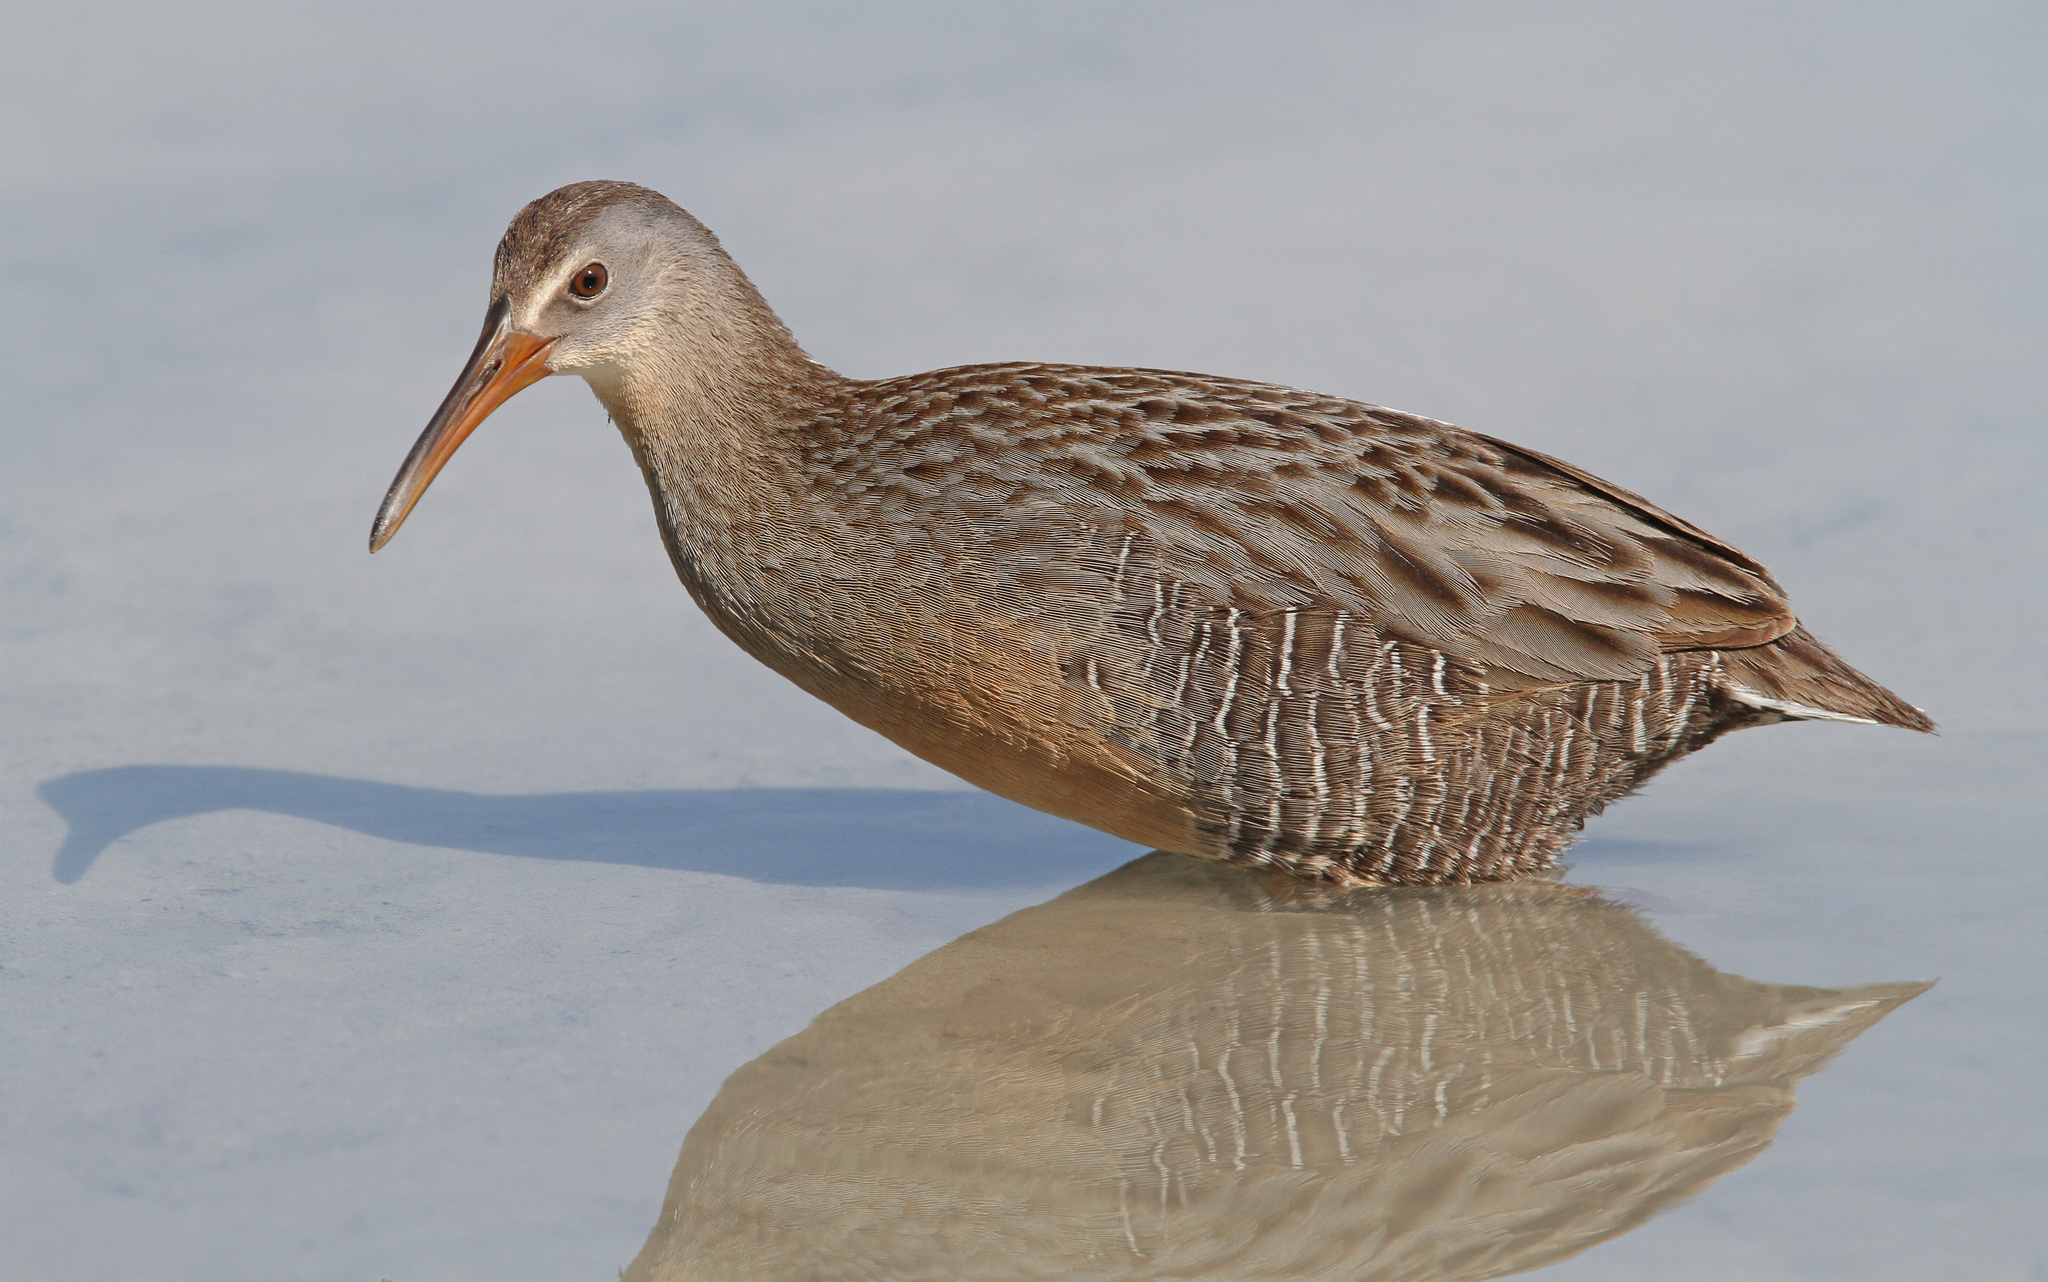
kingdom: Animalia
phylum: Chordata
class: Aves
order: Gruiformes
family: Rallidae
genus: Rallus
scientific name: Rallus crepitans
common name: Clapper rail
